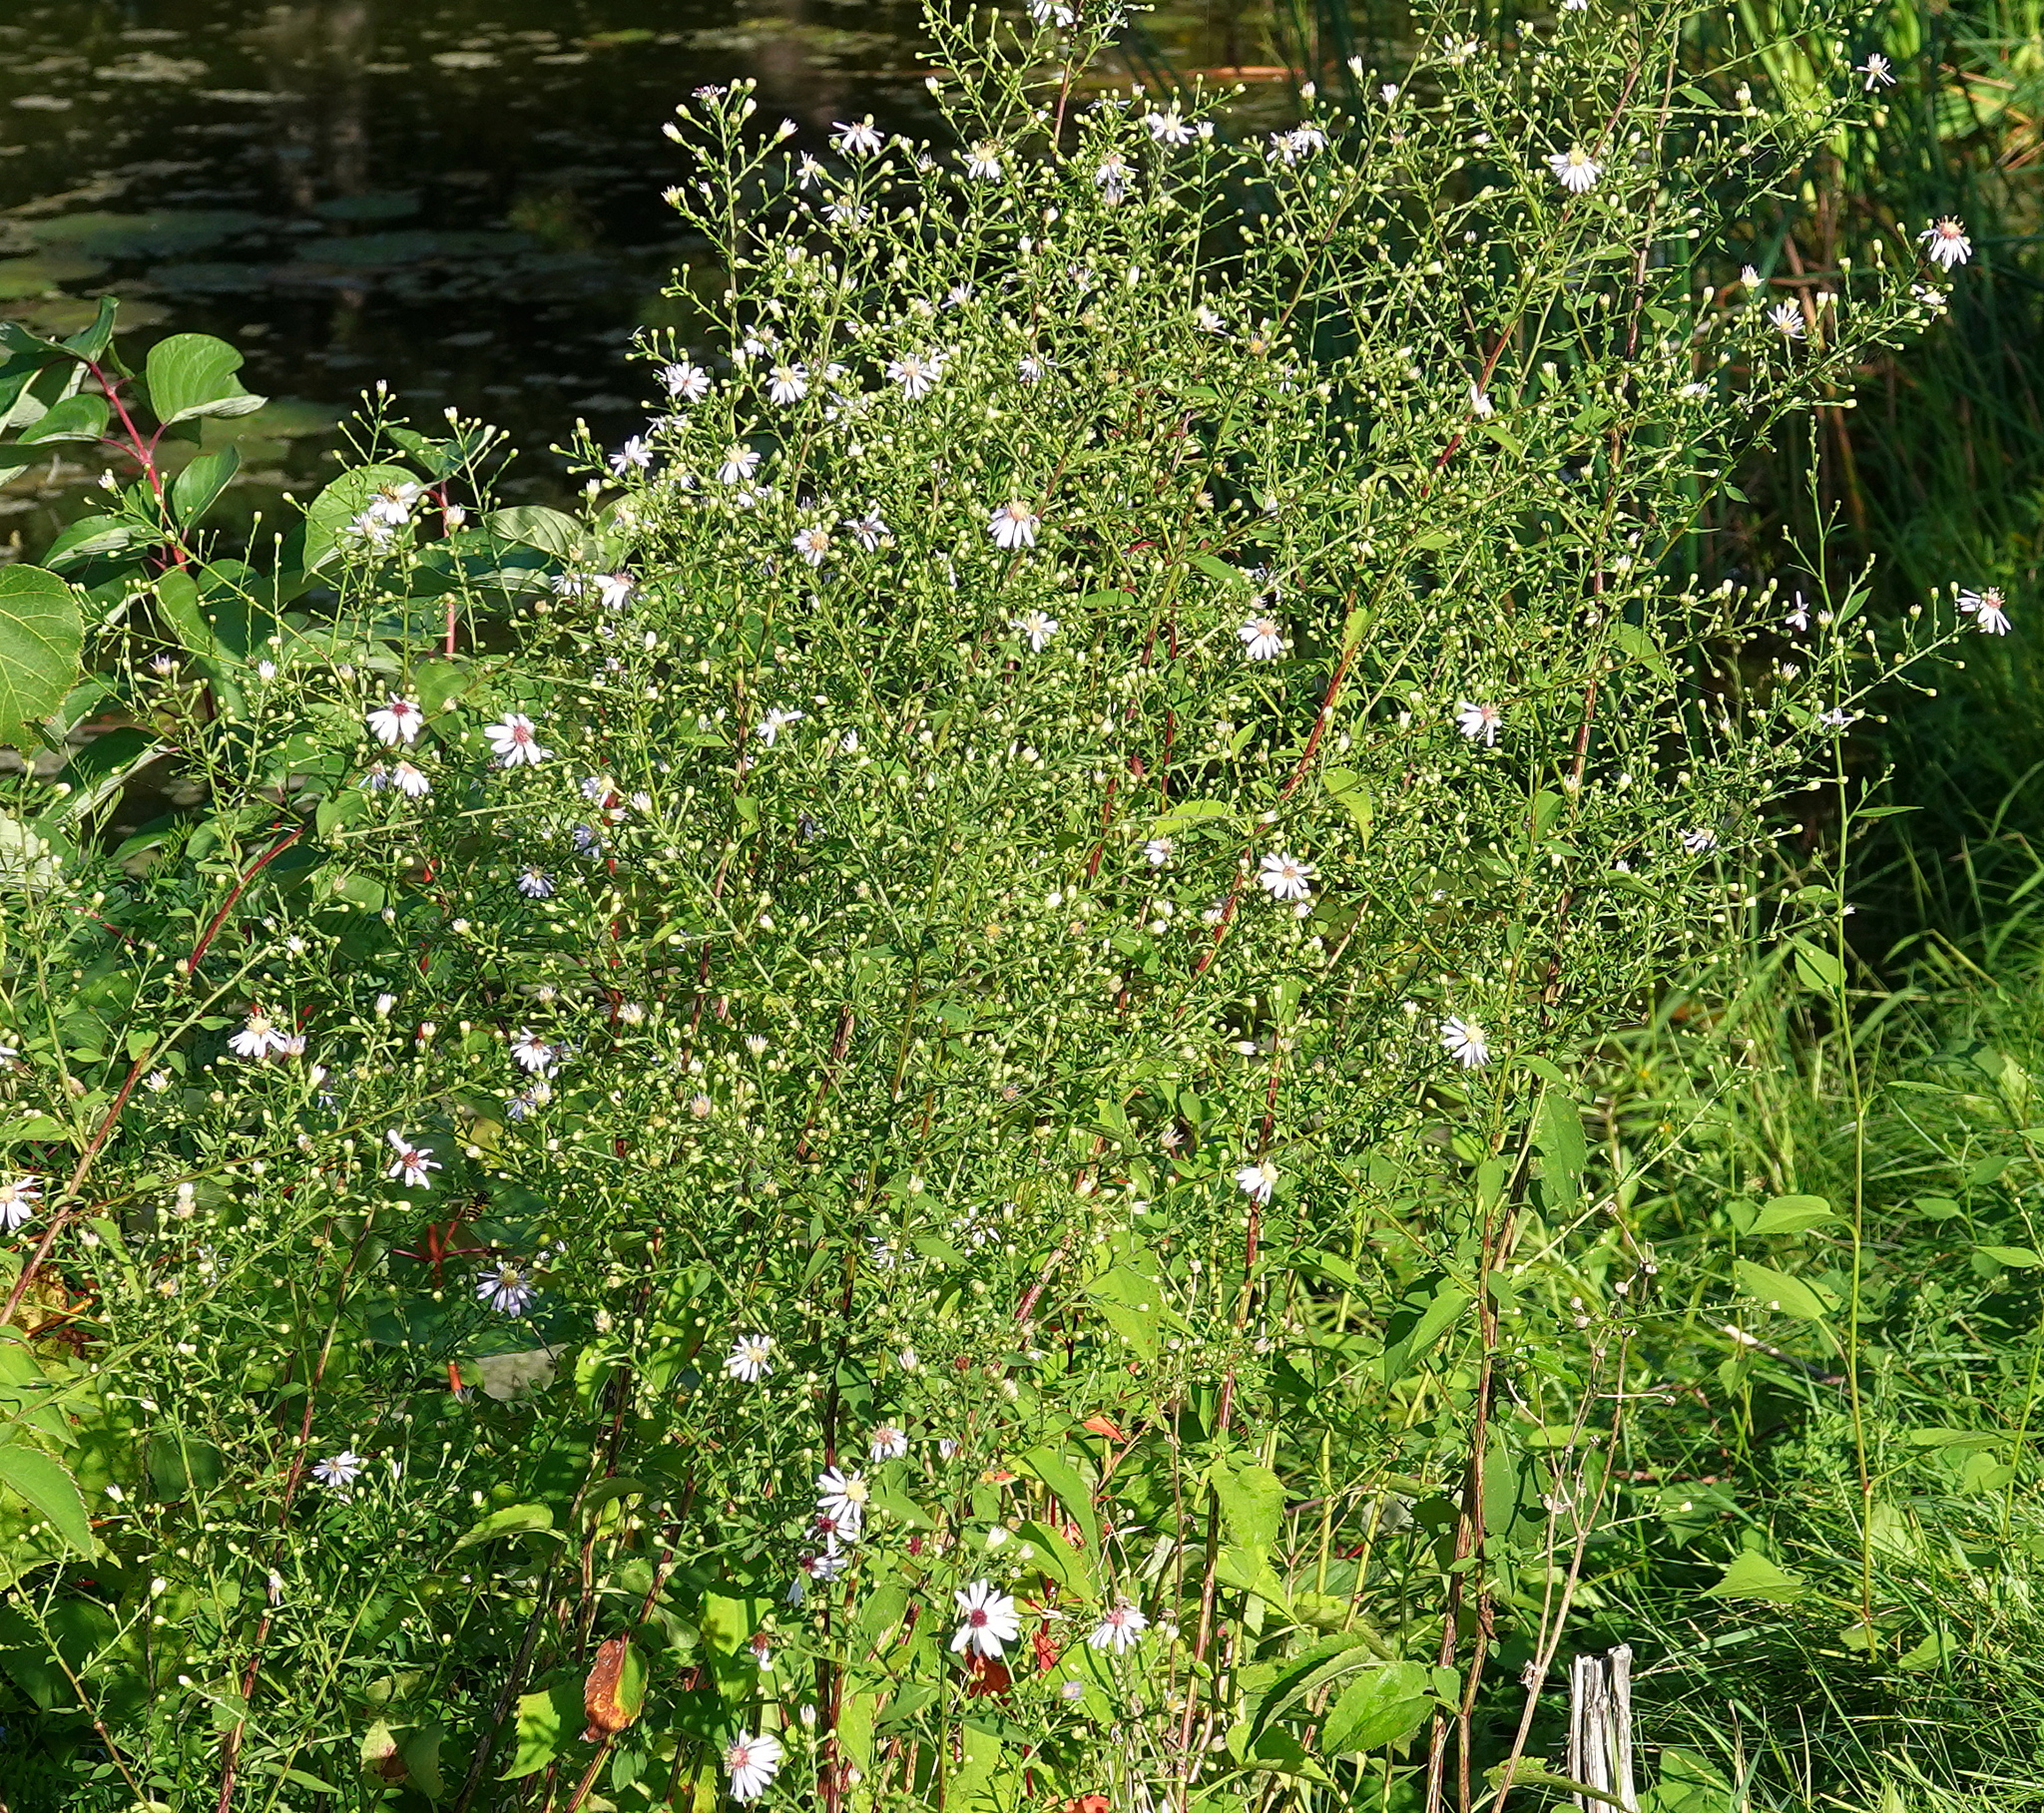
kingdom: Plantae
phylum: Tracheophyta
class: Magnoliopsida
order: Asterales
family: Asteraceae
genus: Symphyotrichum
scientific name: Symphyotrichum lanceolatum
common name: Panicled aster
